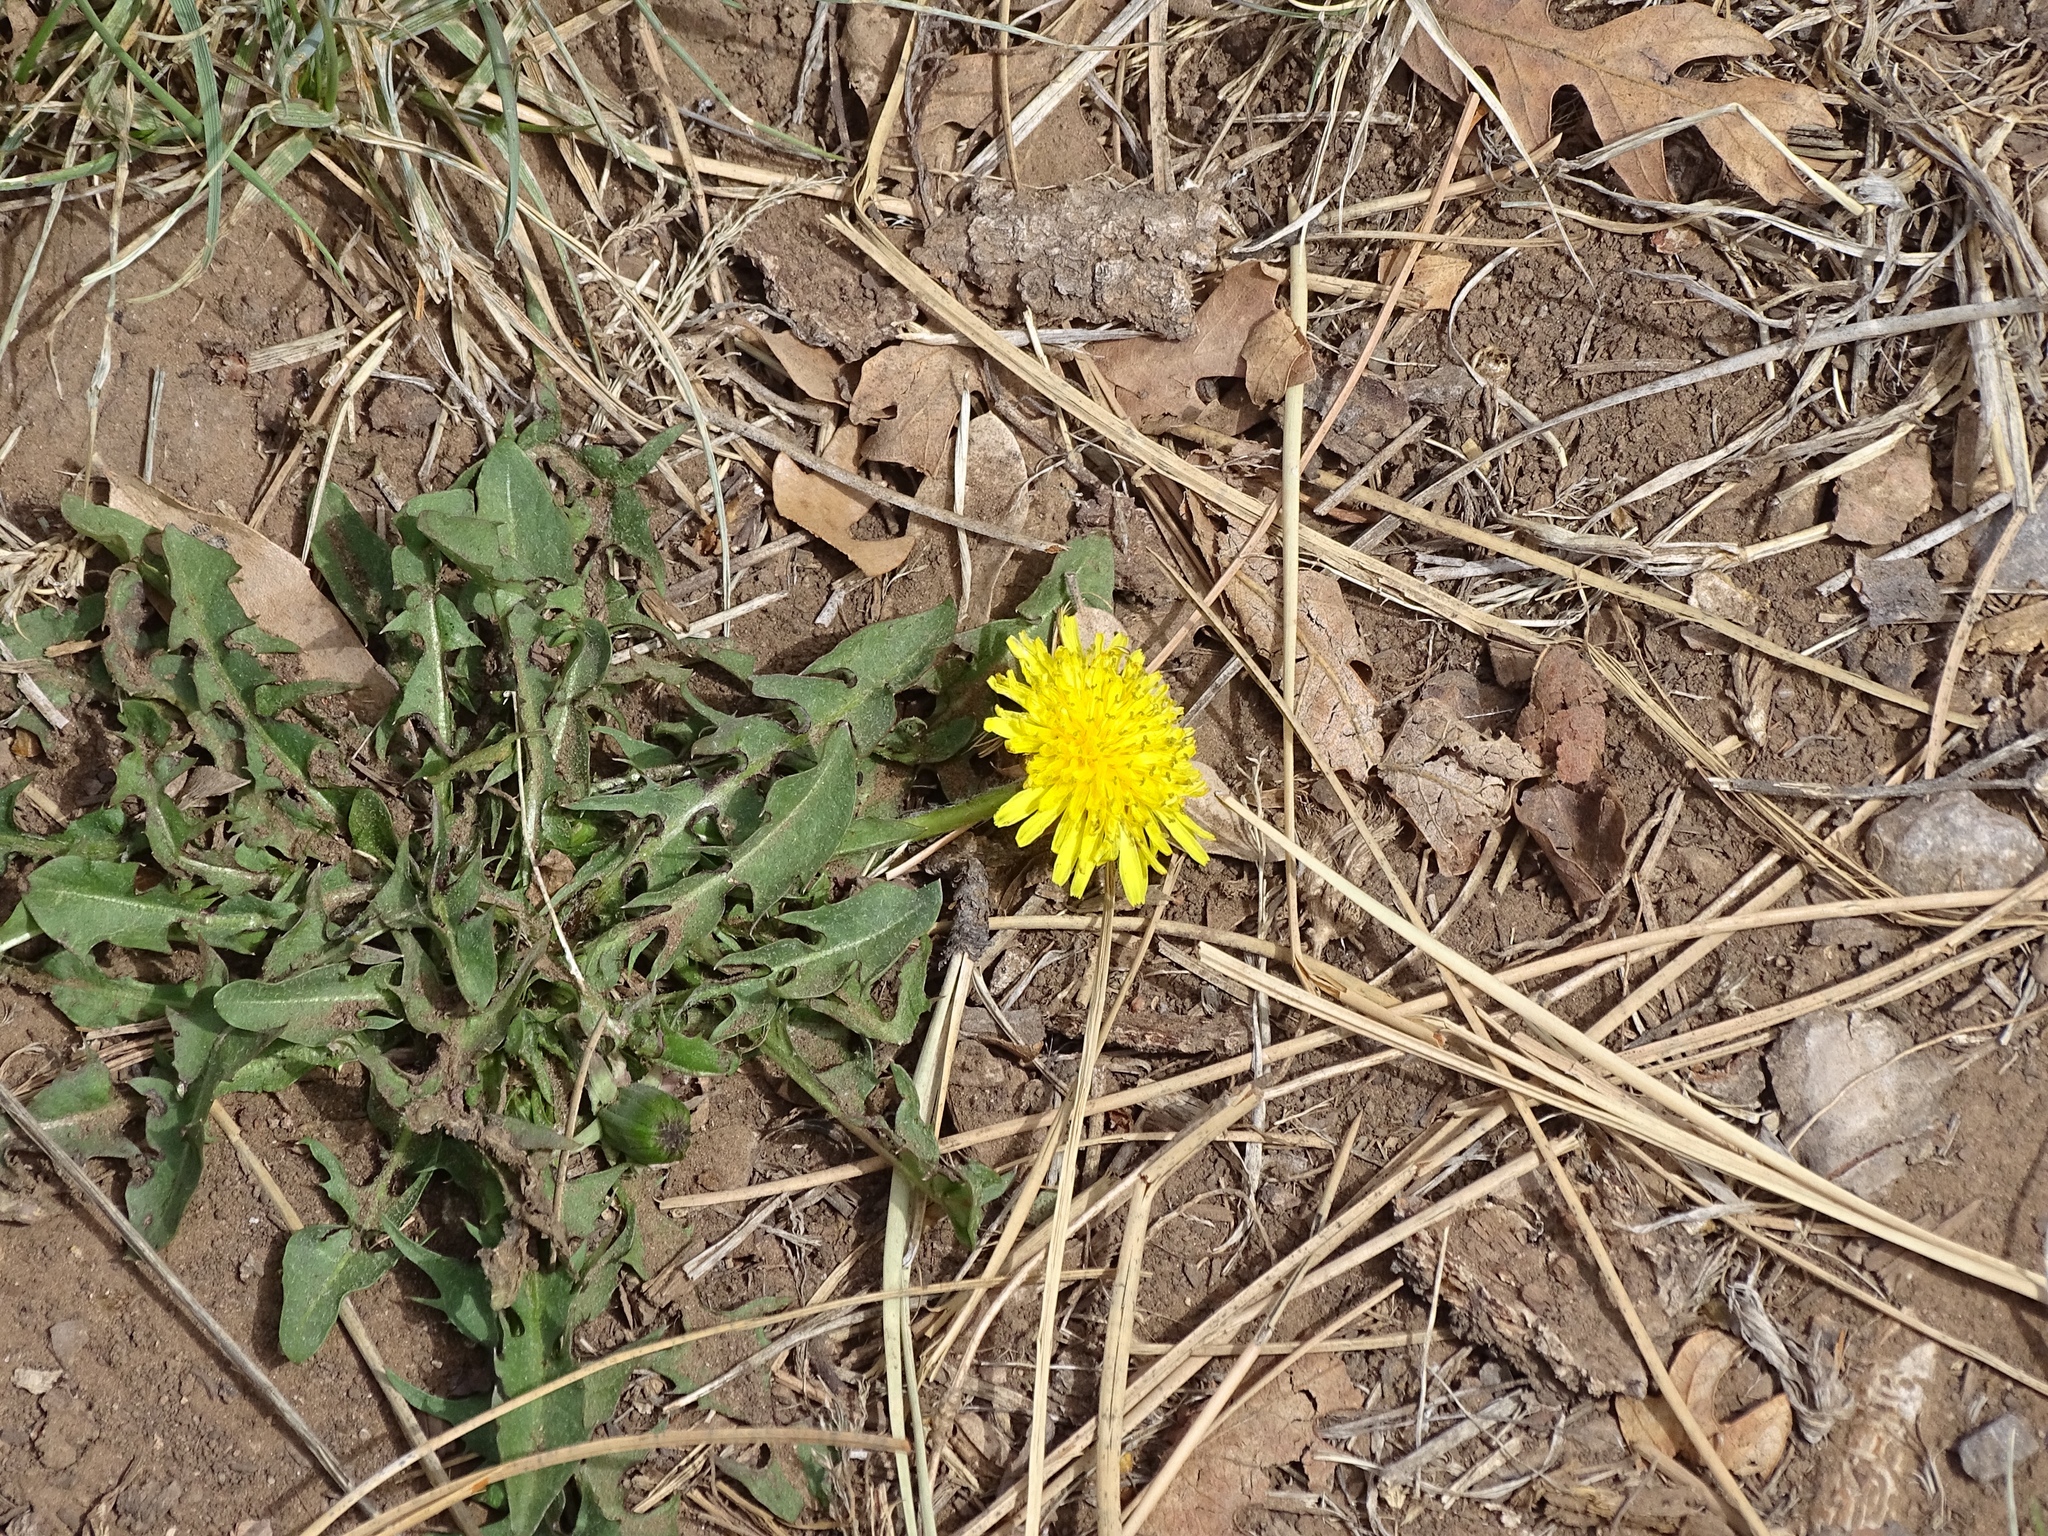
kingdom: Plantae
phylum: Tracheophyta
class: Magnoliopsida
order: Asterales
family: Asteraceae
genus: Taraxacum
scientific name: Taraxacum officinale
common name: Common dandelion
